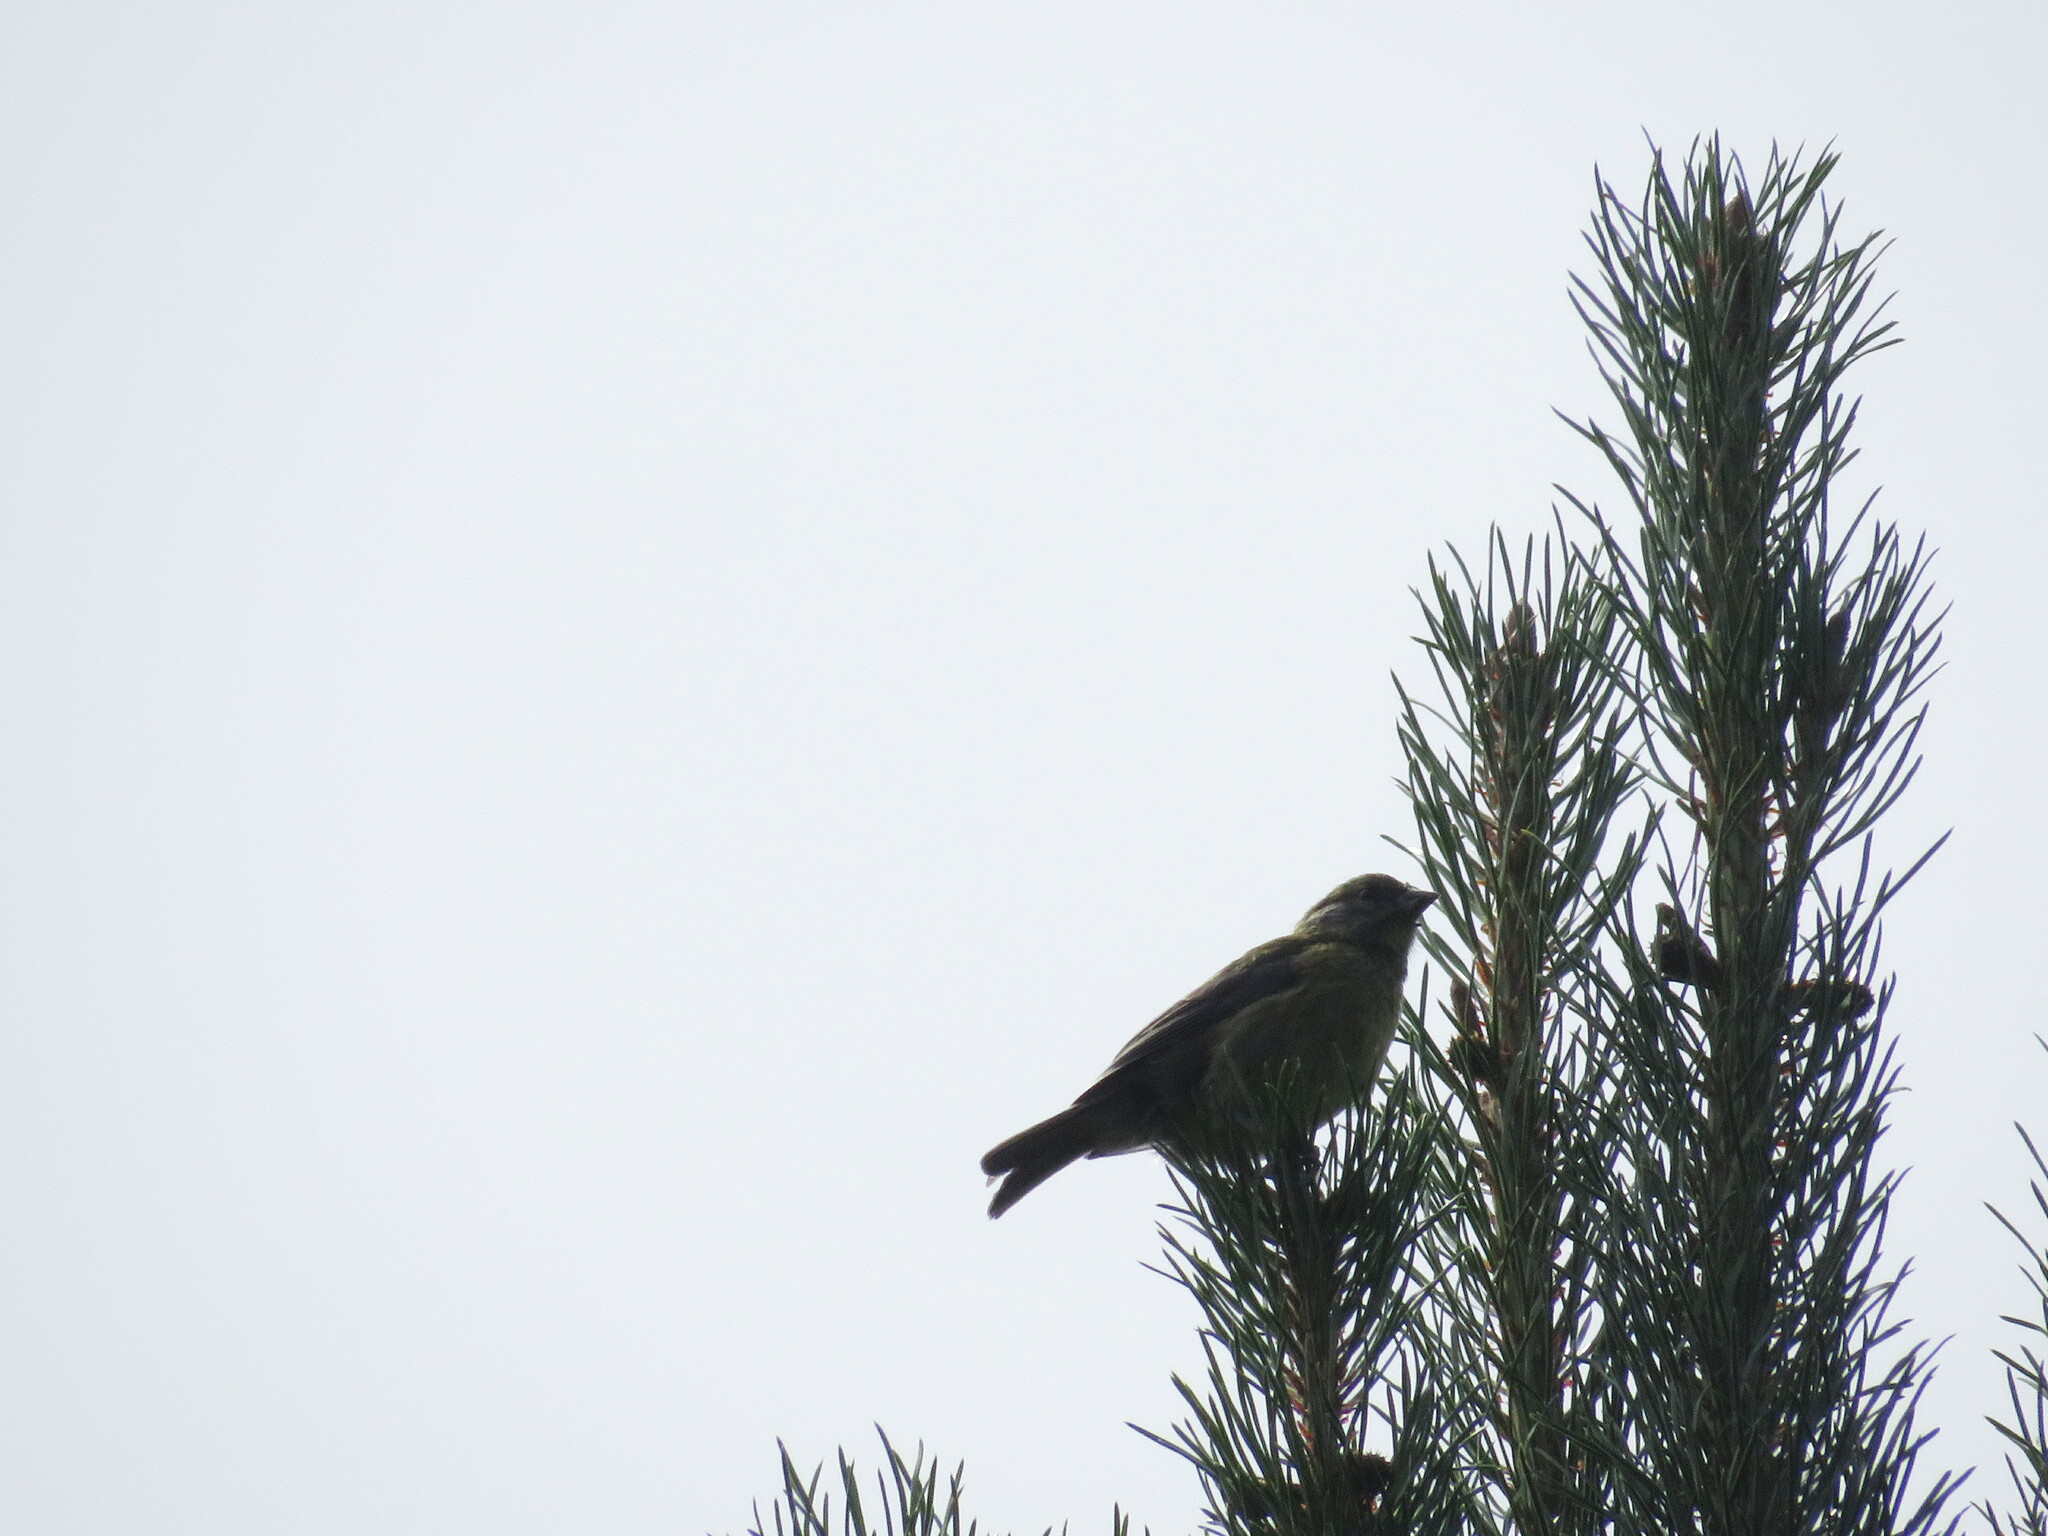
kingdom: Animalia
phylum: Chordata
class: Aves
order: Passeriformes
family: Thraupidae
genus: Phrygilus
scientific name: Phrygilus patagonicus
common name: Patagonian sierra finch
